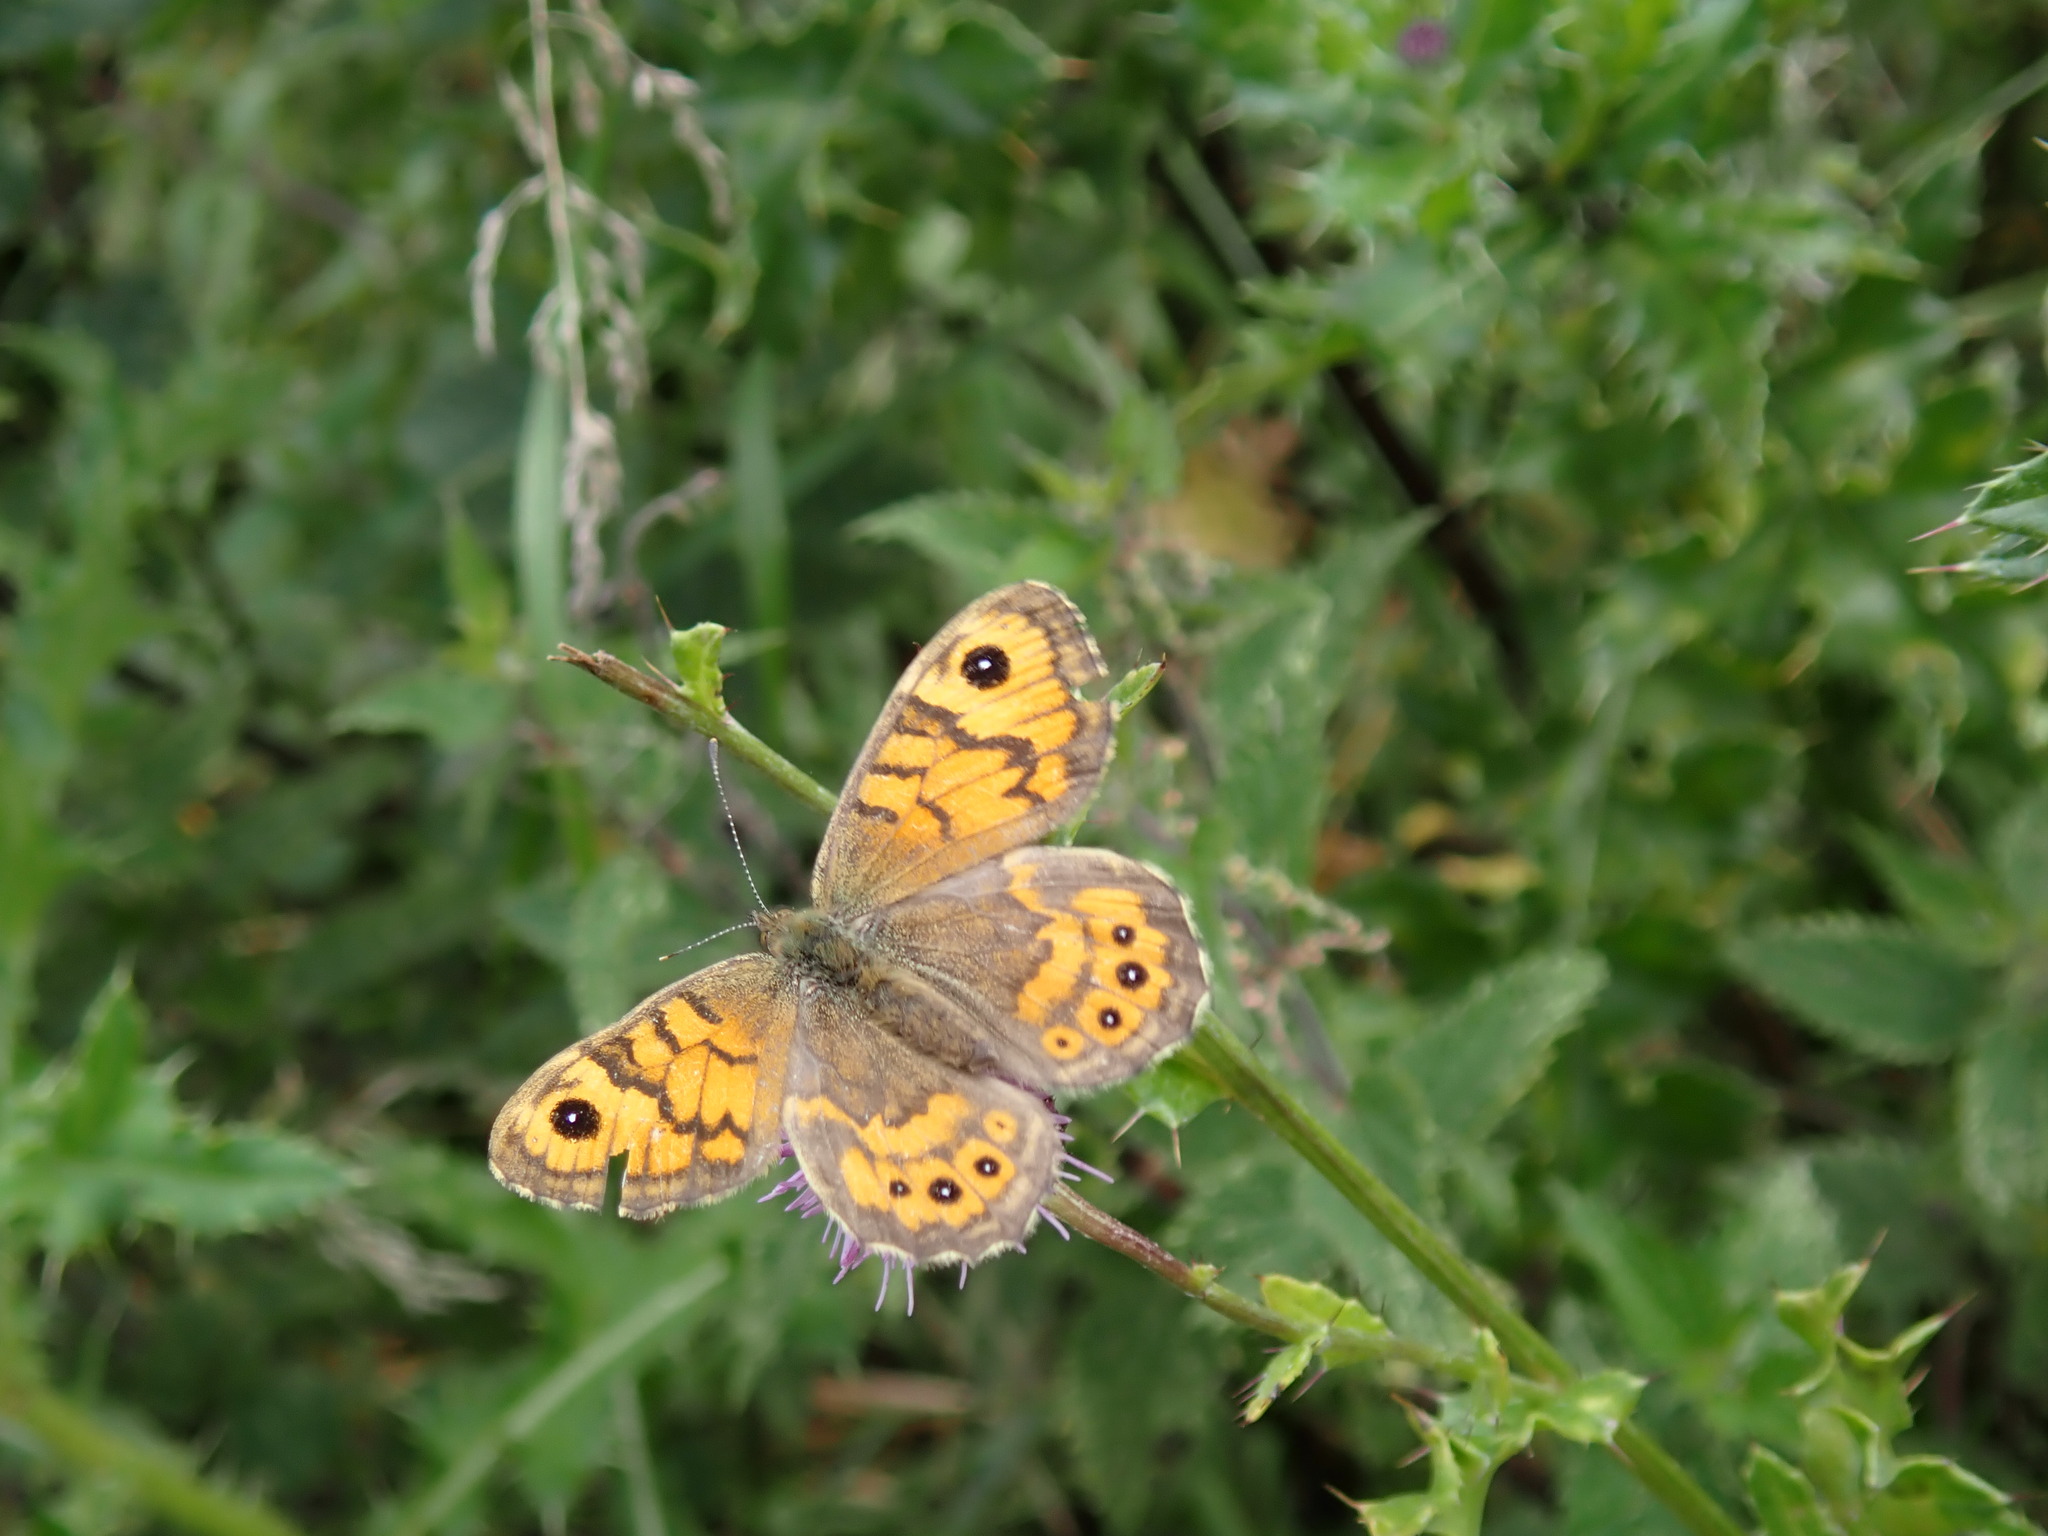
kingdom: Animalia
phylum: Arthropoda
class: Insecta
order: Lepidoptera
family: Nymphalidae
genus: Pararge
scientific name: Pararge Lasiommata megera
